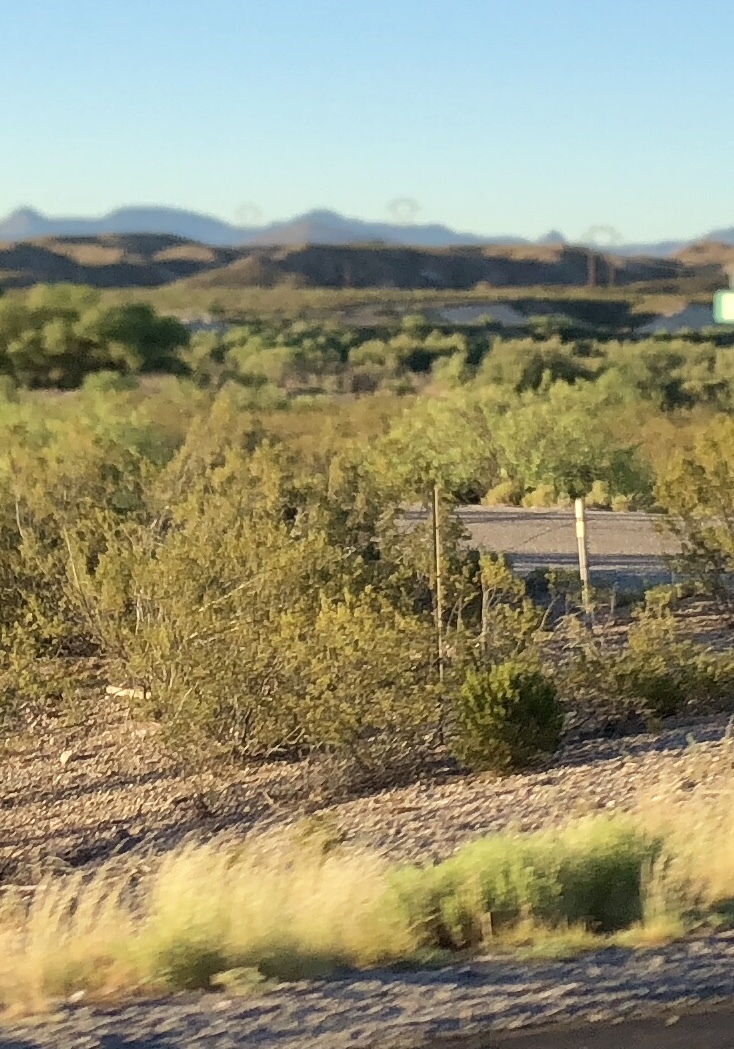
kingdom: Plantae
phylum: Tracheophyta
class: Magnoliopsida
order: Zygophyllales
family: Zygophyllaceae
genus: Larrea
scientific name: Larrea tridentata
